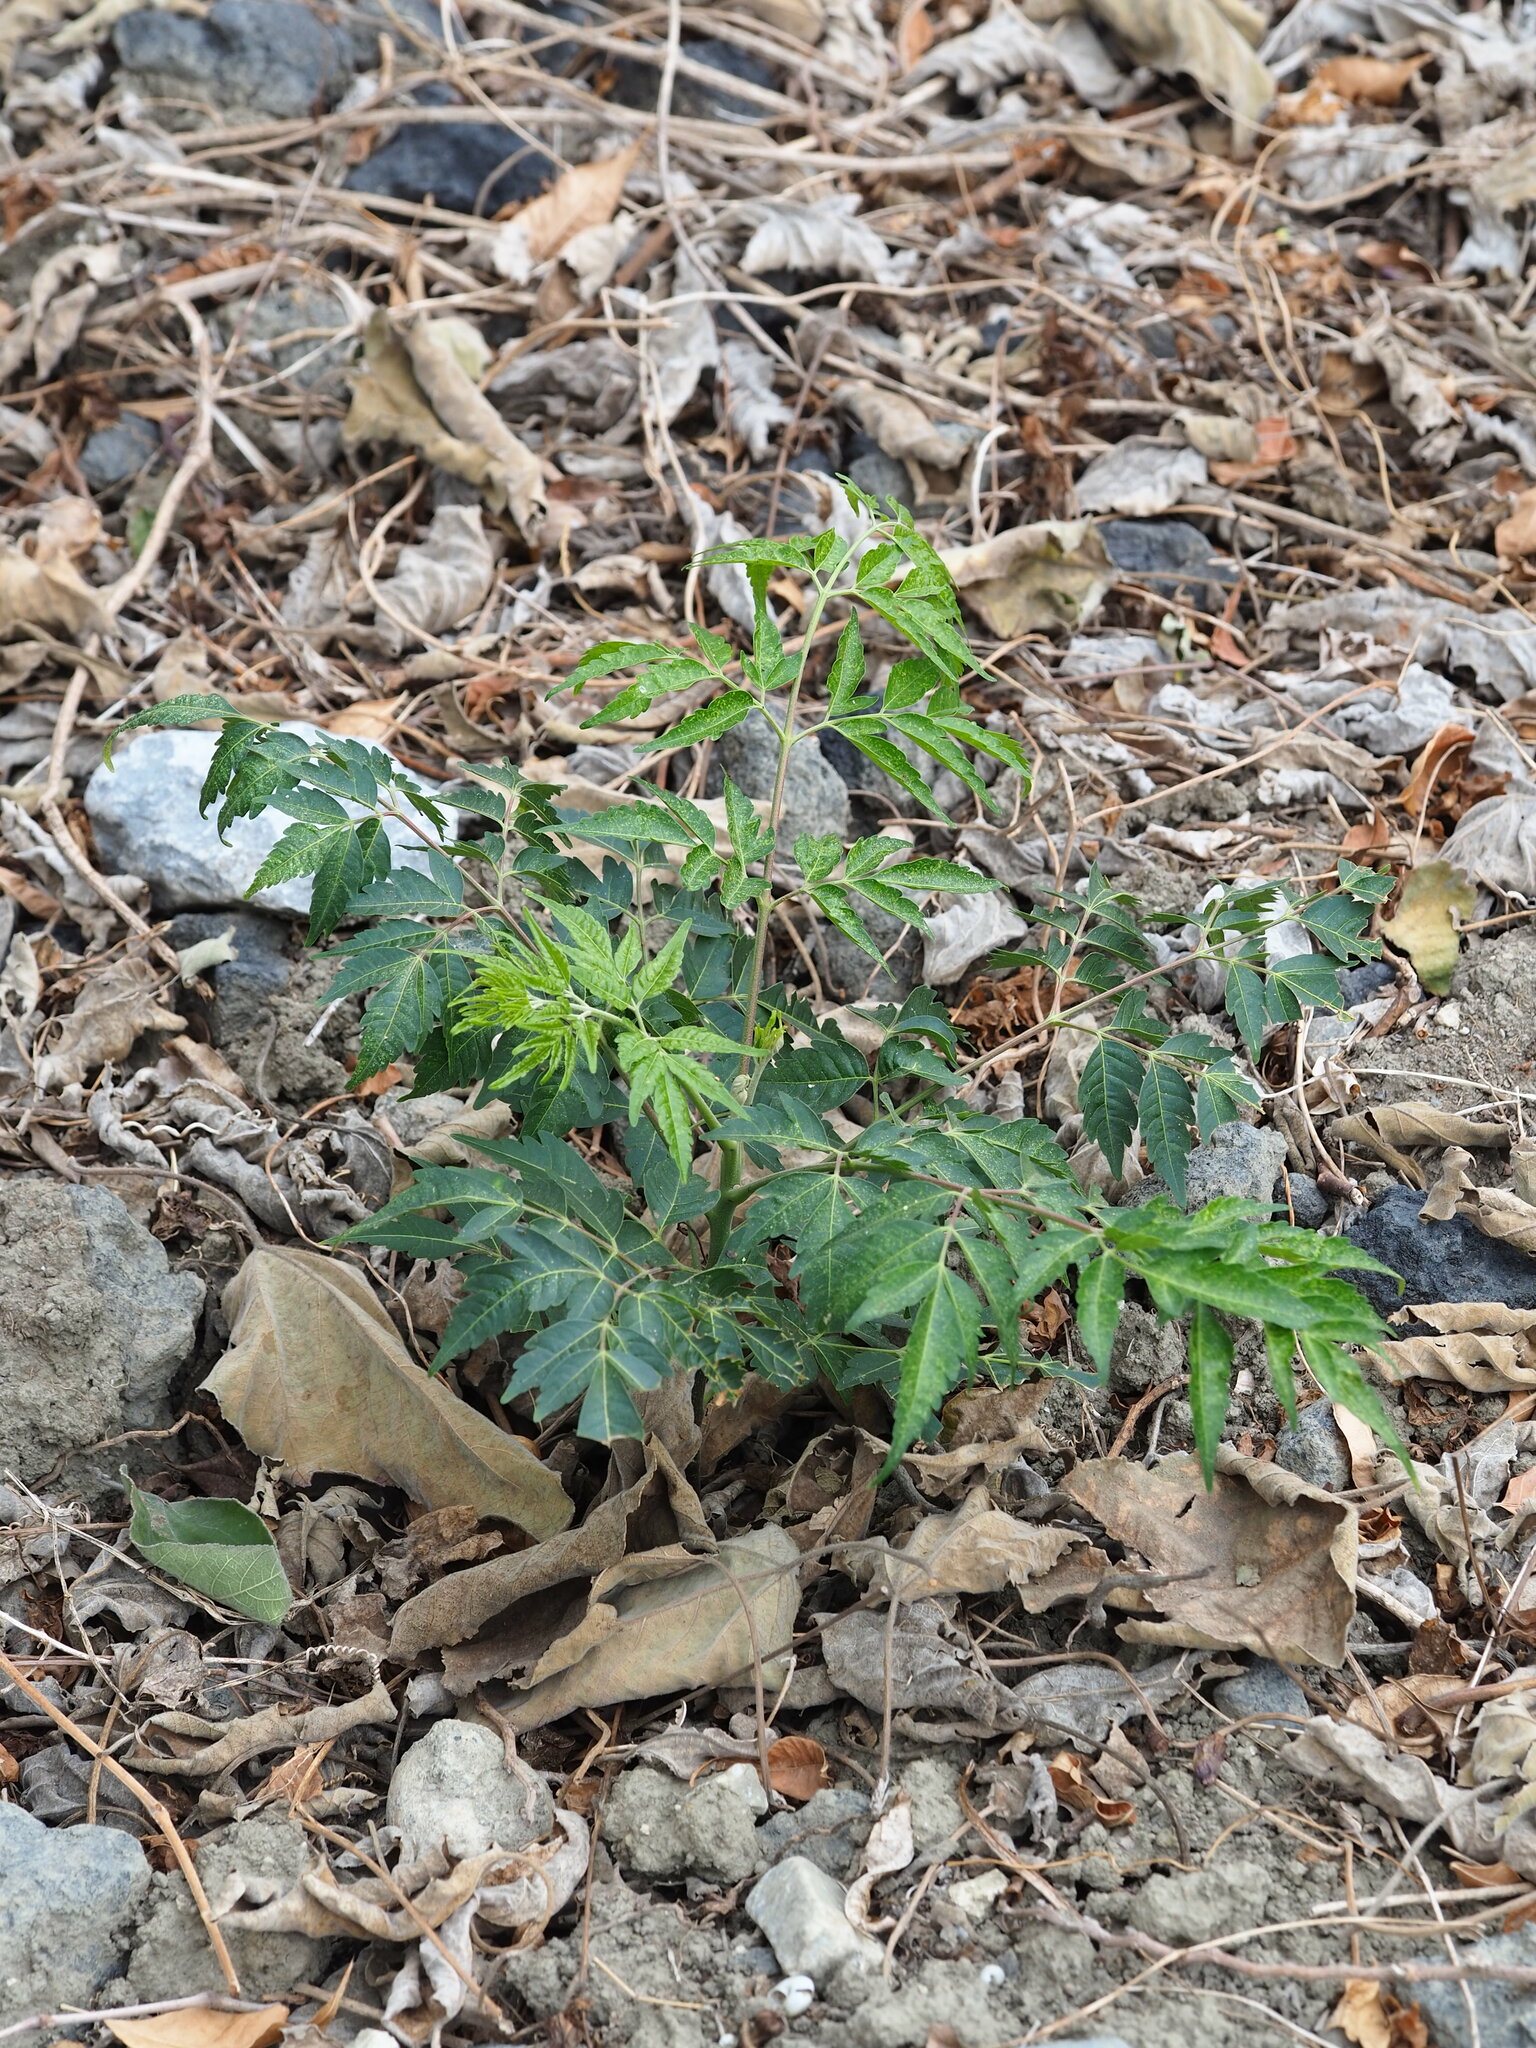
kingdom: Plantae
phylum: Tracheophyta
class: Magnoliopsida
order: Sapindales
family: Sapindaceae
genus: Koelreuteria
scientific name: Koelreuteria elegans
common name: Chinese flame tree
